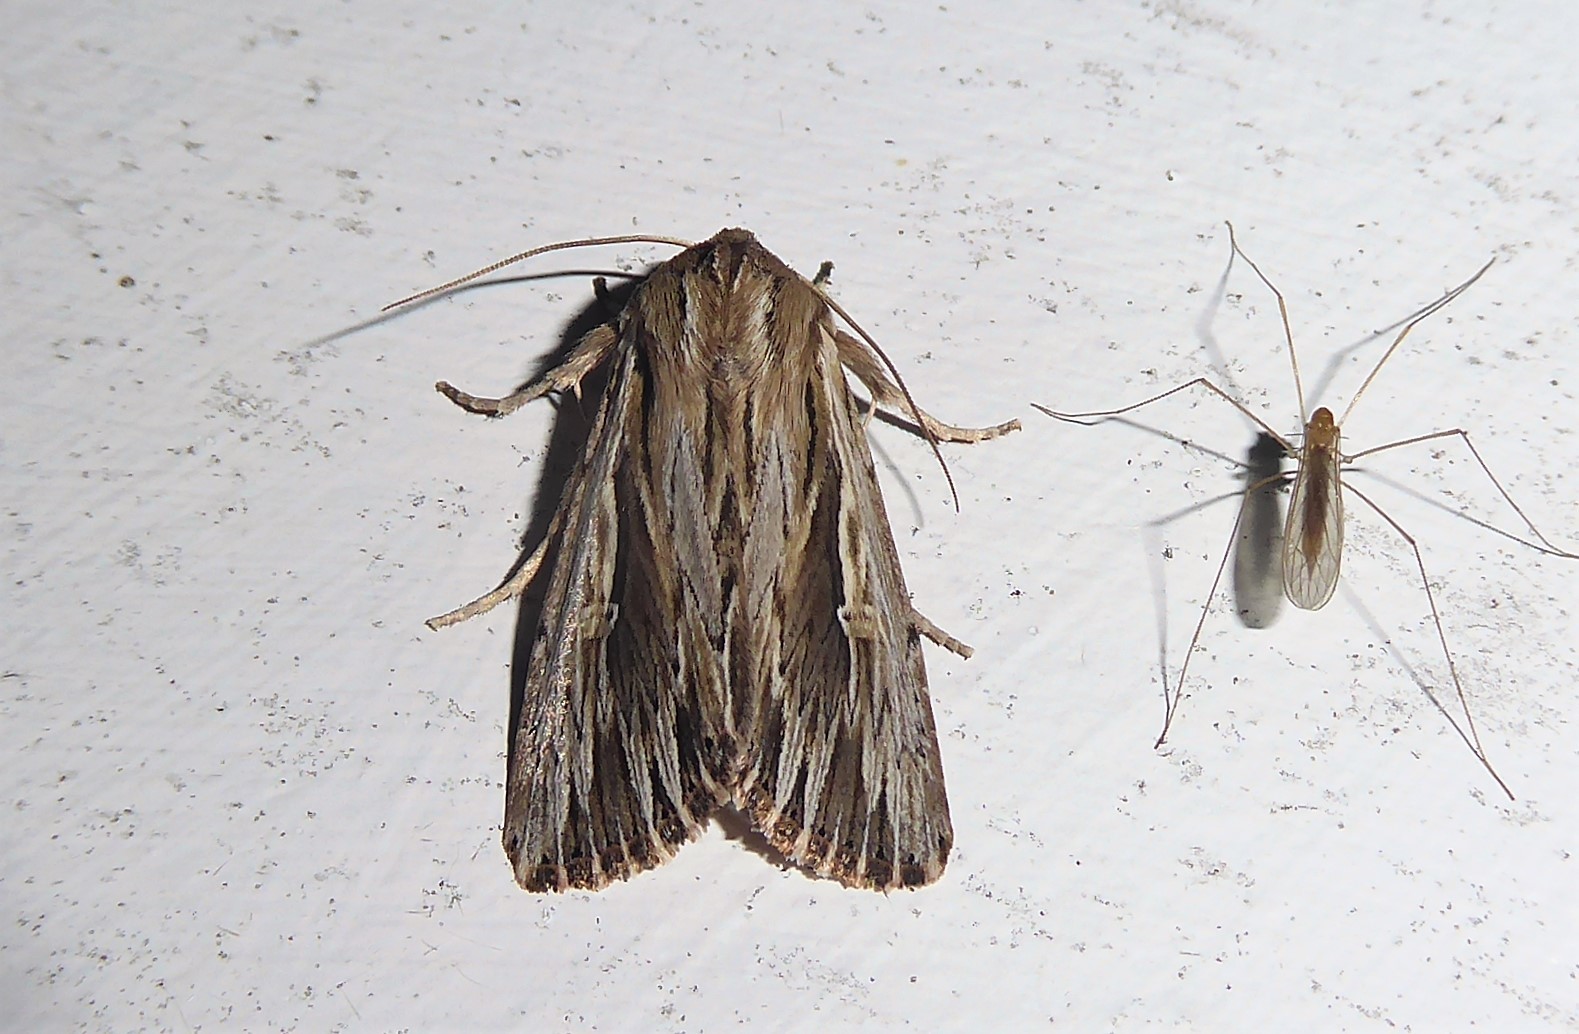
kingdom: Animalia
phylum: Arthropoda
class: Insecta
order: Lepidoptera
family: Noctuidae
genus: Persectania
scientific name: Persectania aversa
